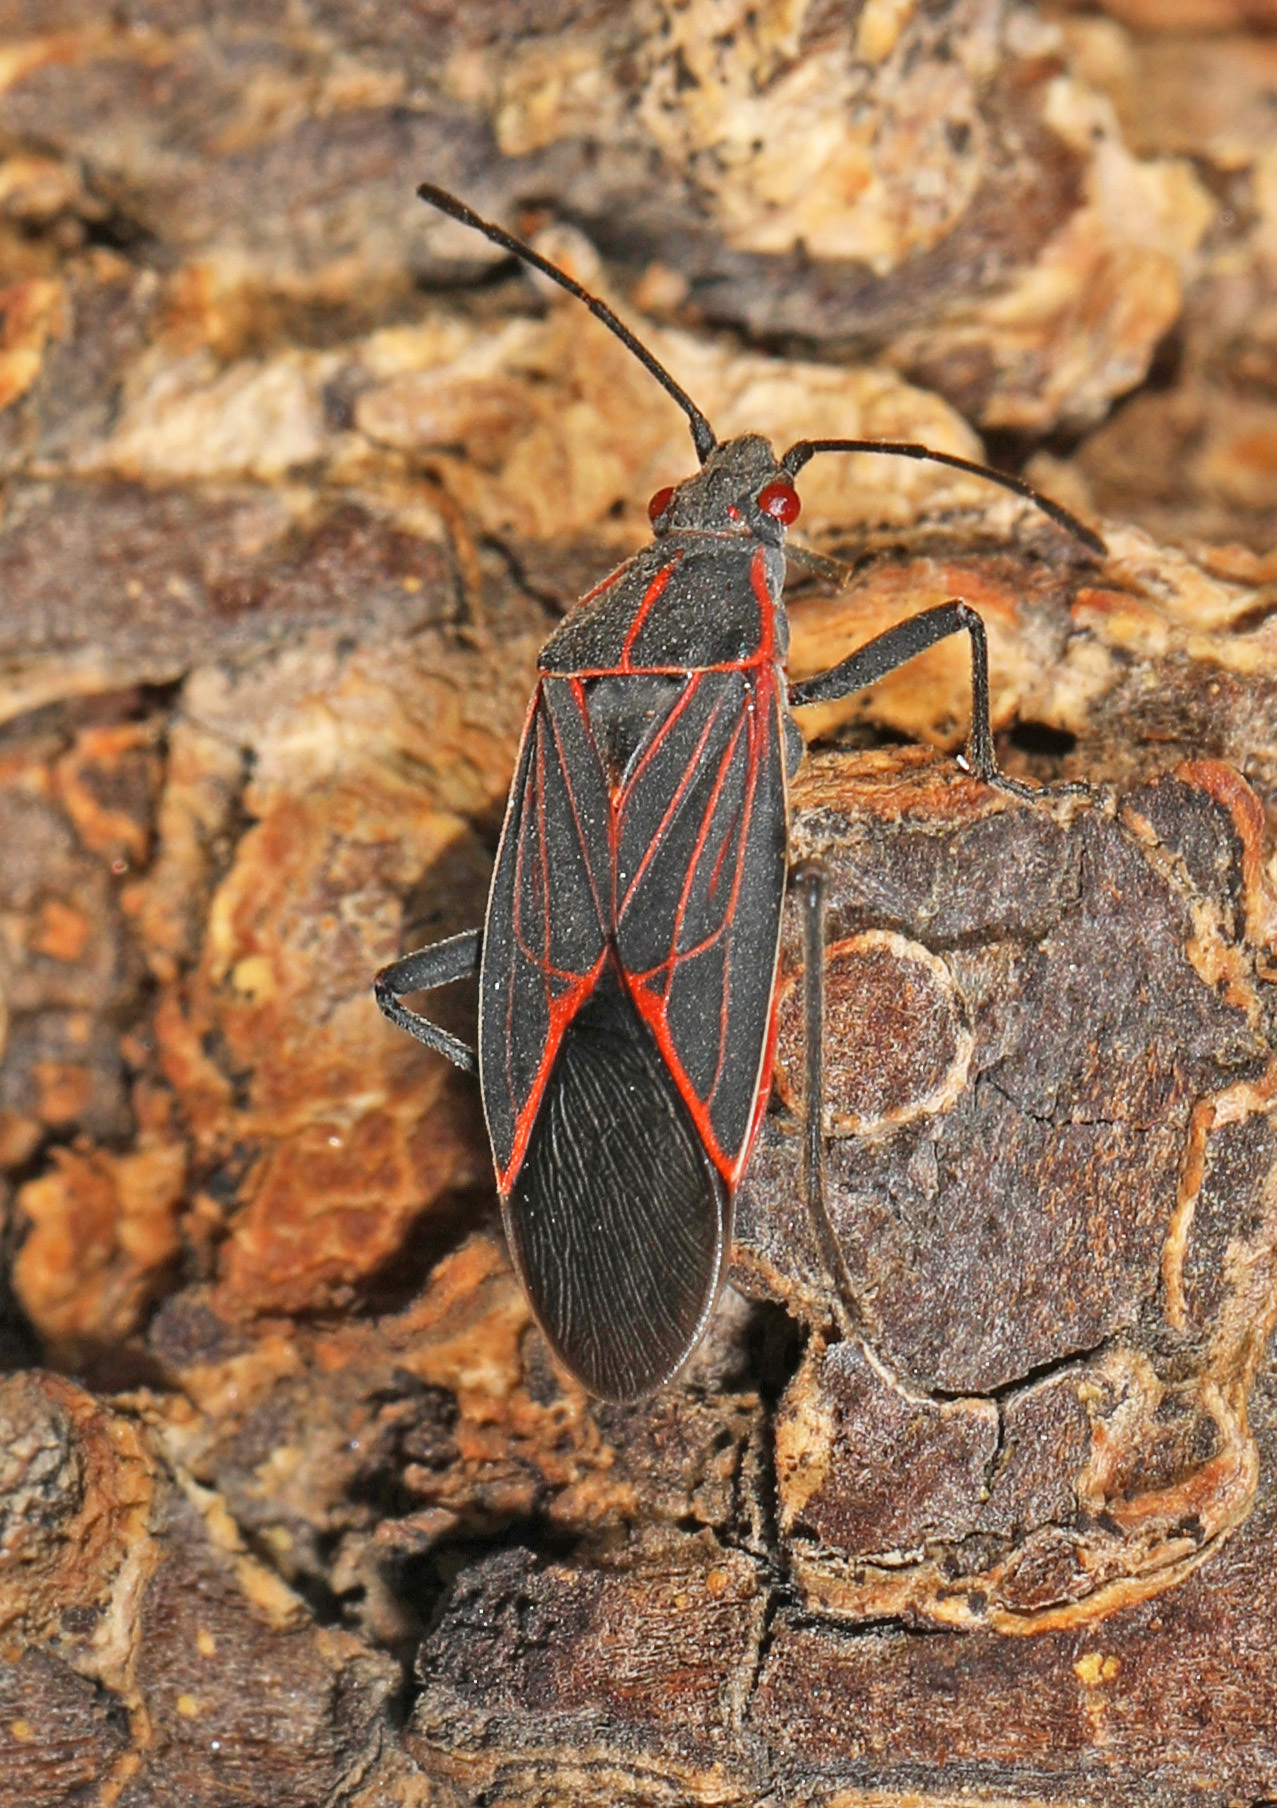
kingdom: Animalia
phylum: Arthropoda
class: Insecta
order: Hemiptera
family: Rhopalidae
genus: Boisea
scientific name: Boisea rubrolineata
